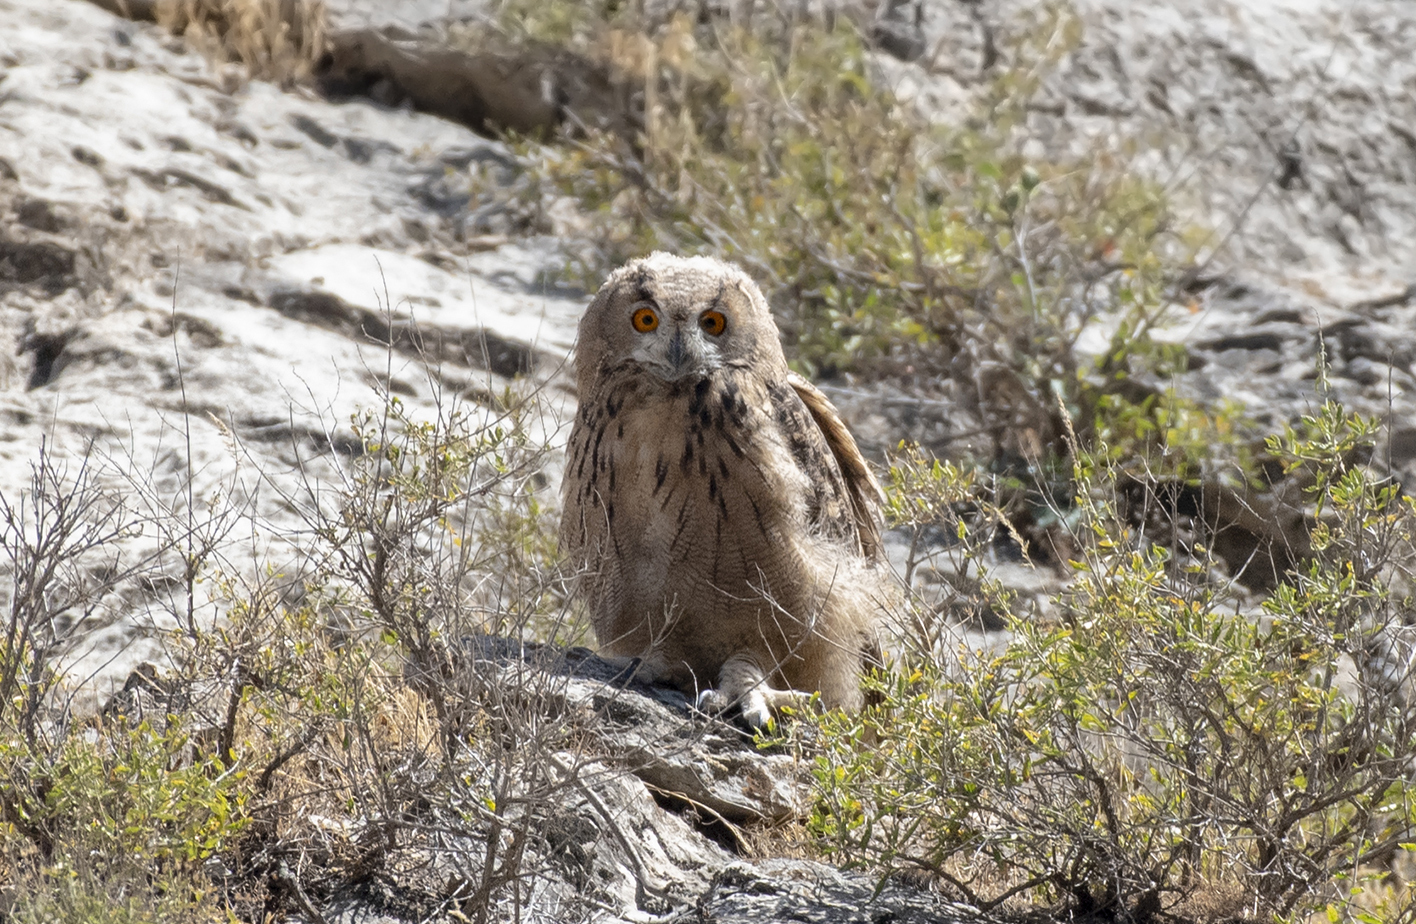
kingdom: Animalia
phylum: Chordata
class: Aves
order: Strigiformes
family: Strigidae
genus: Bubo
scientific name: Bubo bubo
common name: Eurasian eagle-owl
